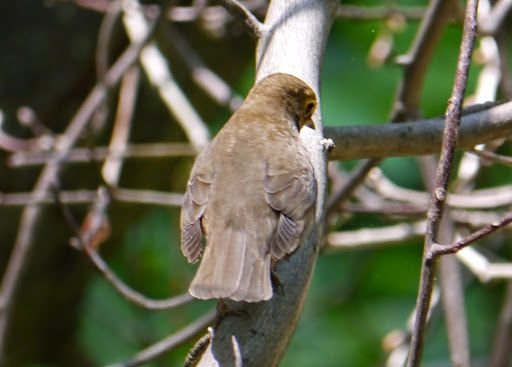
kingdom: Animalia
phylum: Chordata
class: Aves
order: Passeriformes
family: Turdidae
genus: Catharus
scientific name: Catharus ustulatus
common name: Swainson's thrush
